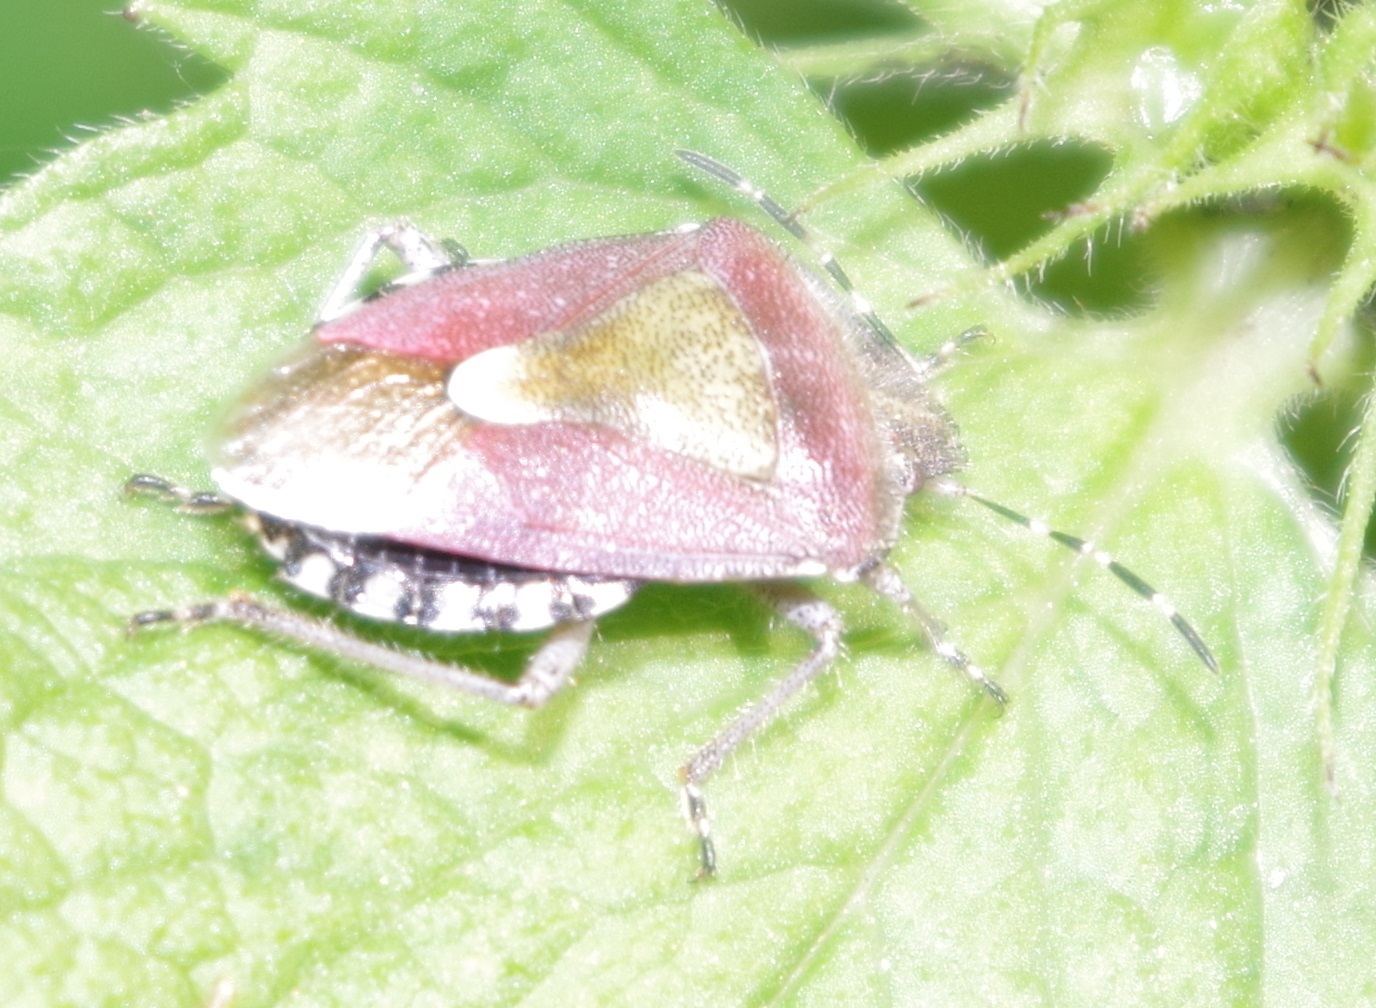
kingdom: Animalia
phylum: Arthropoda
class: Insecta
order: Hemiptera
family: Pentatomidae
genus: Dolycoris
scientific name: Dolycoris baccarum
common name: Sloe bug
